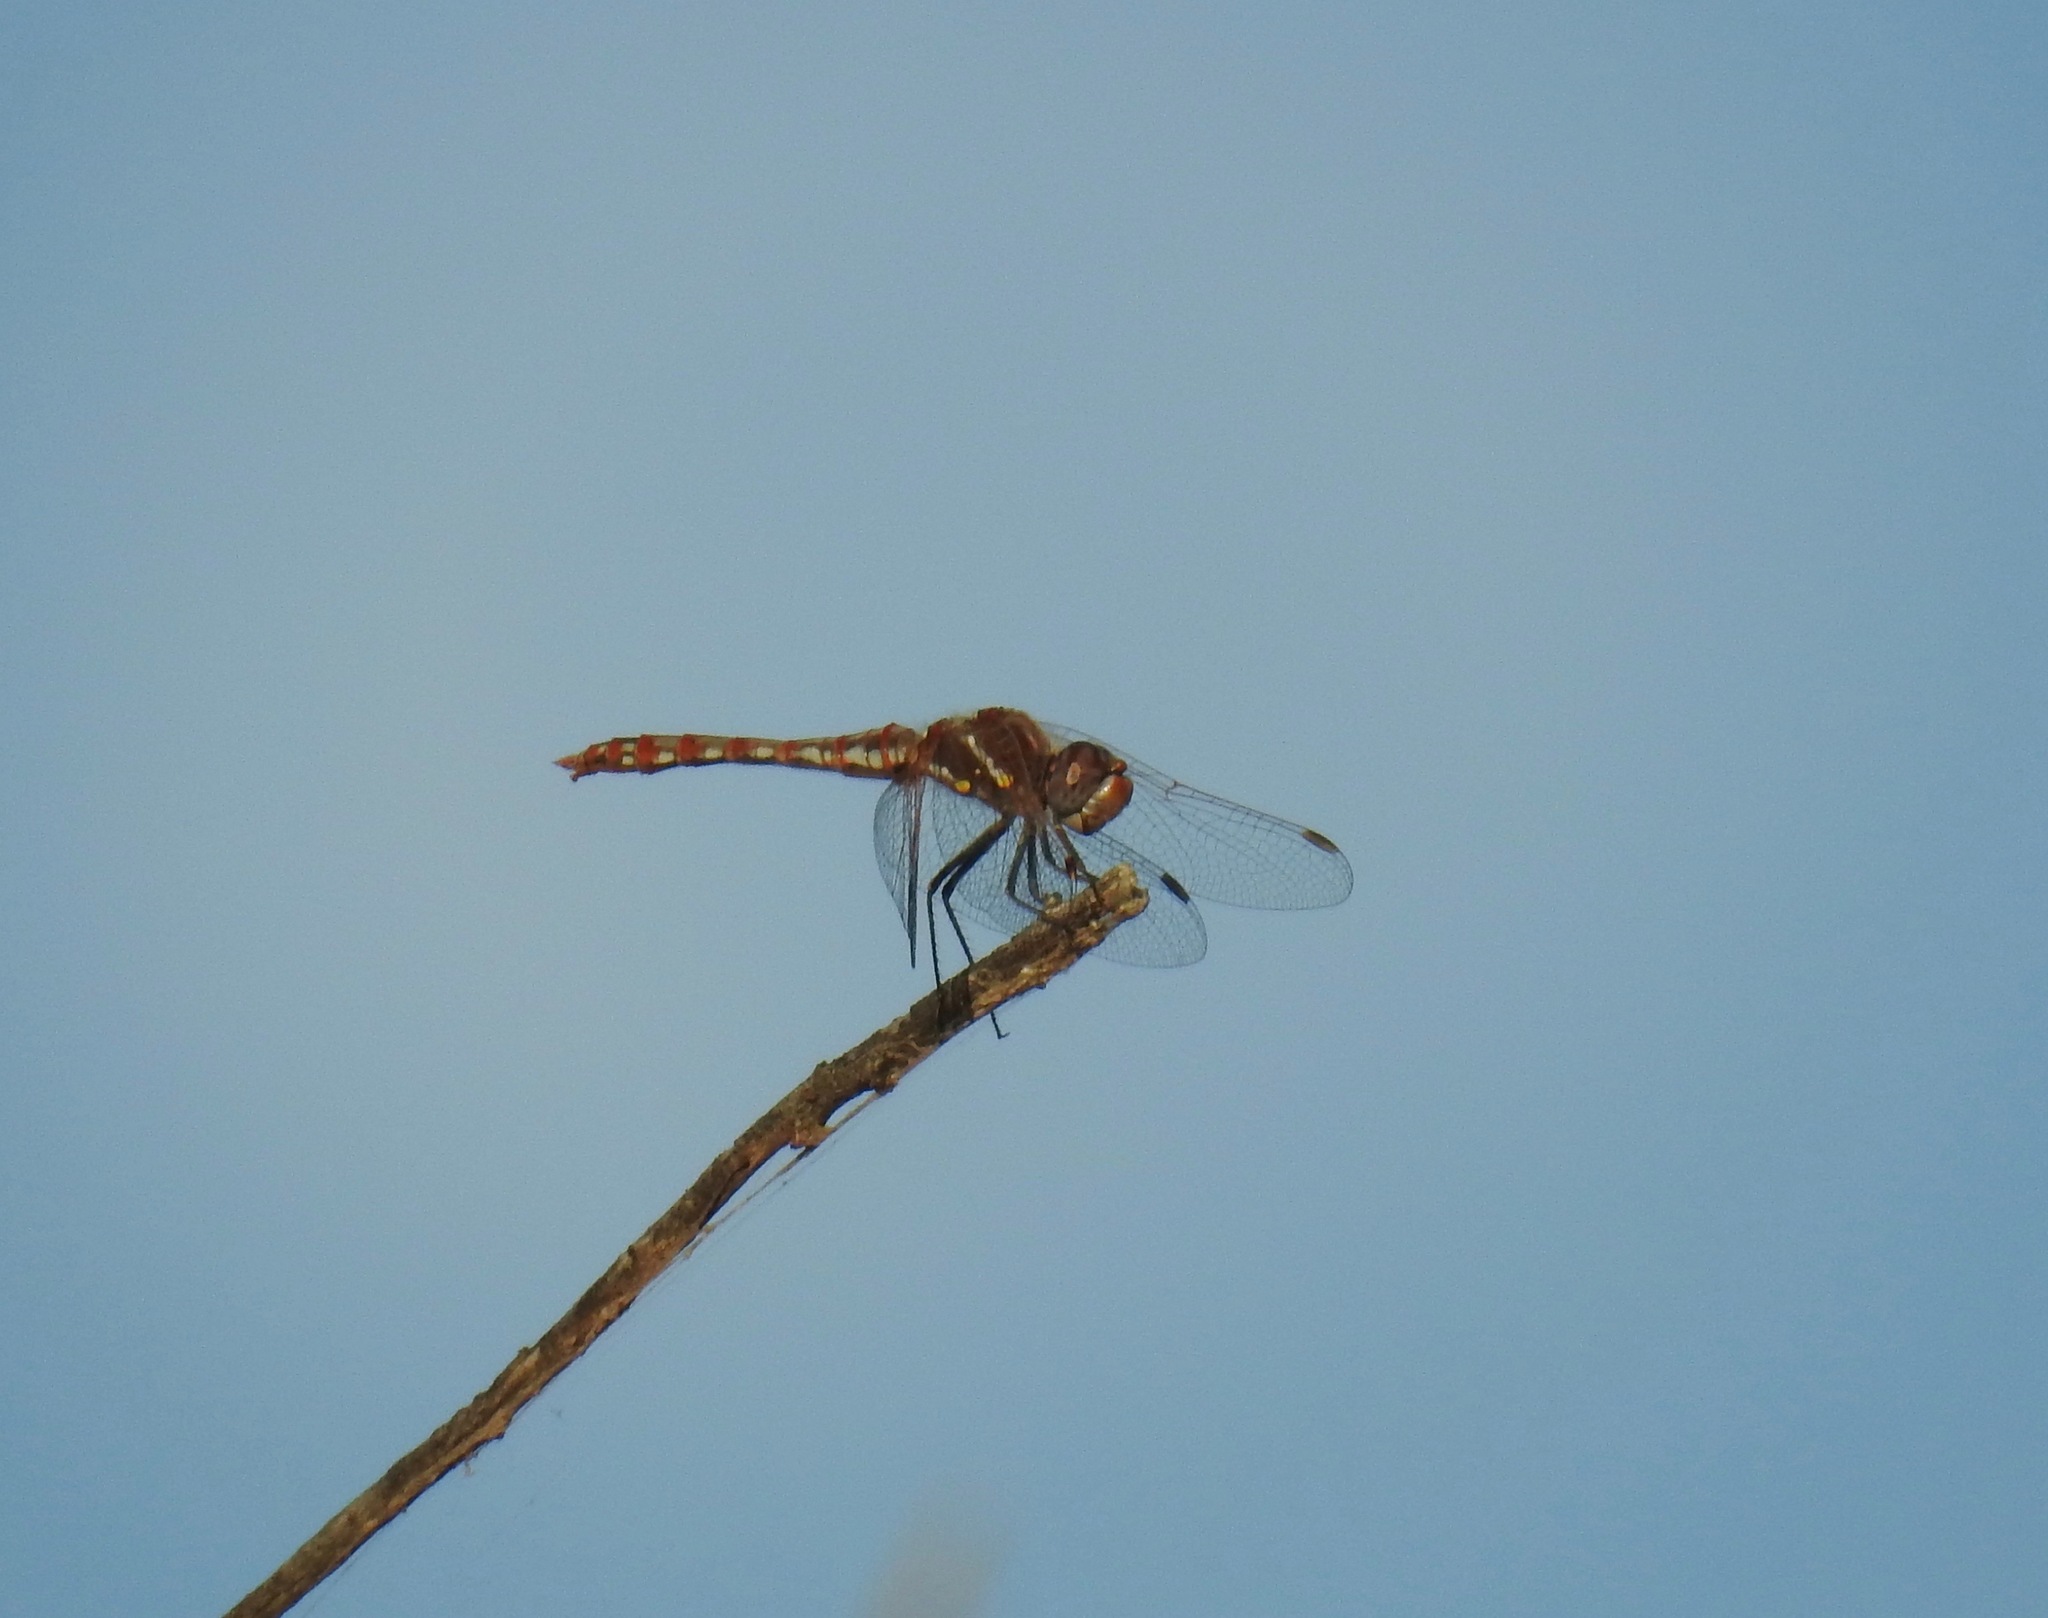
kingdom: Animalia
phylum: Arthropoda
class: Insecta
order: Odonata
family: Libellulidae
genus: Sympetrum
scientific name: Sympetrum corruptum
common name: Variegated meadowhawk
